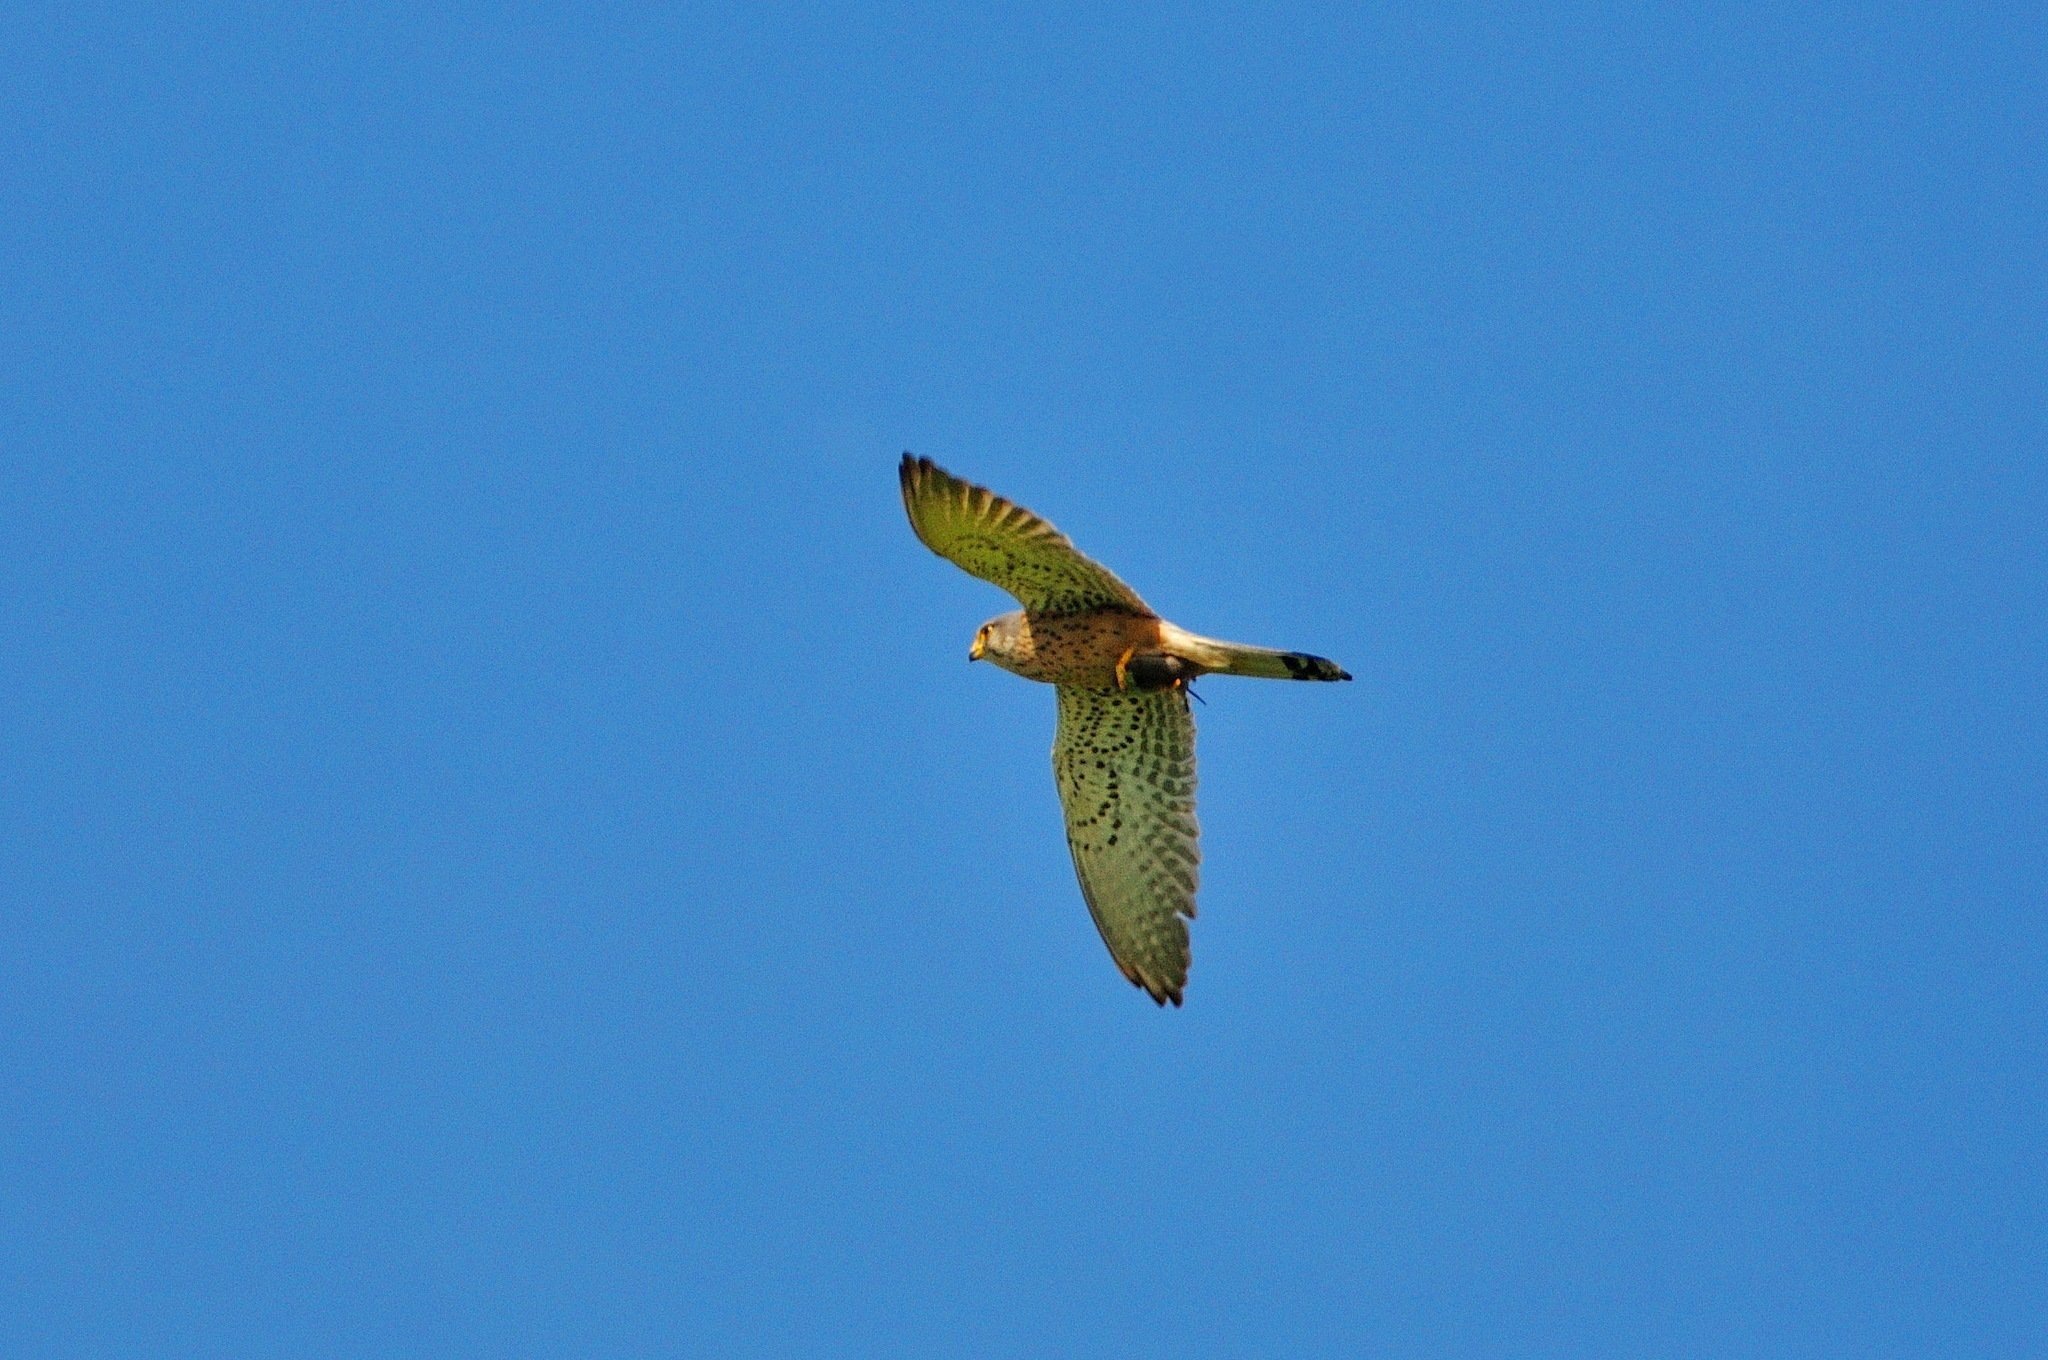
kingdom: Animalia
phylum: Chordata
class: Aves
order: Falconiformes
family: Falconidae
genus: Falco
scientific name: Falco tinnunculus
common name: Common kestrel
